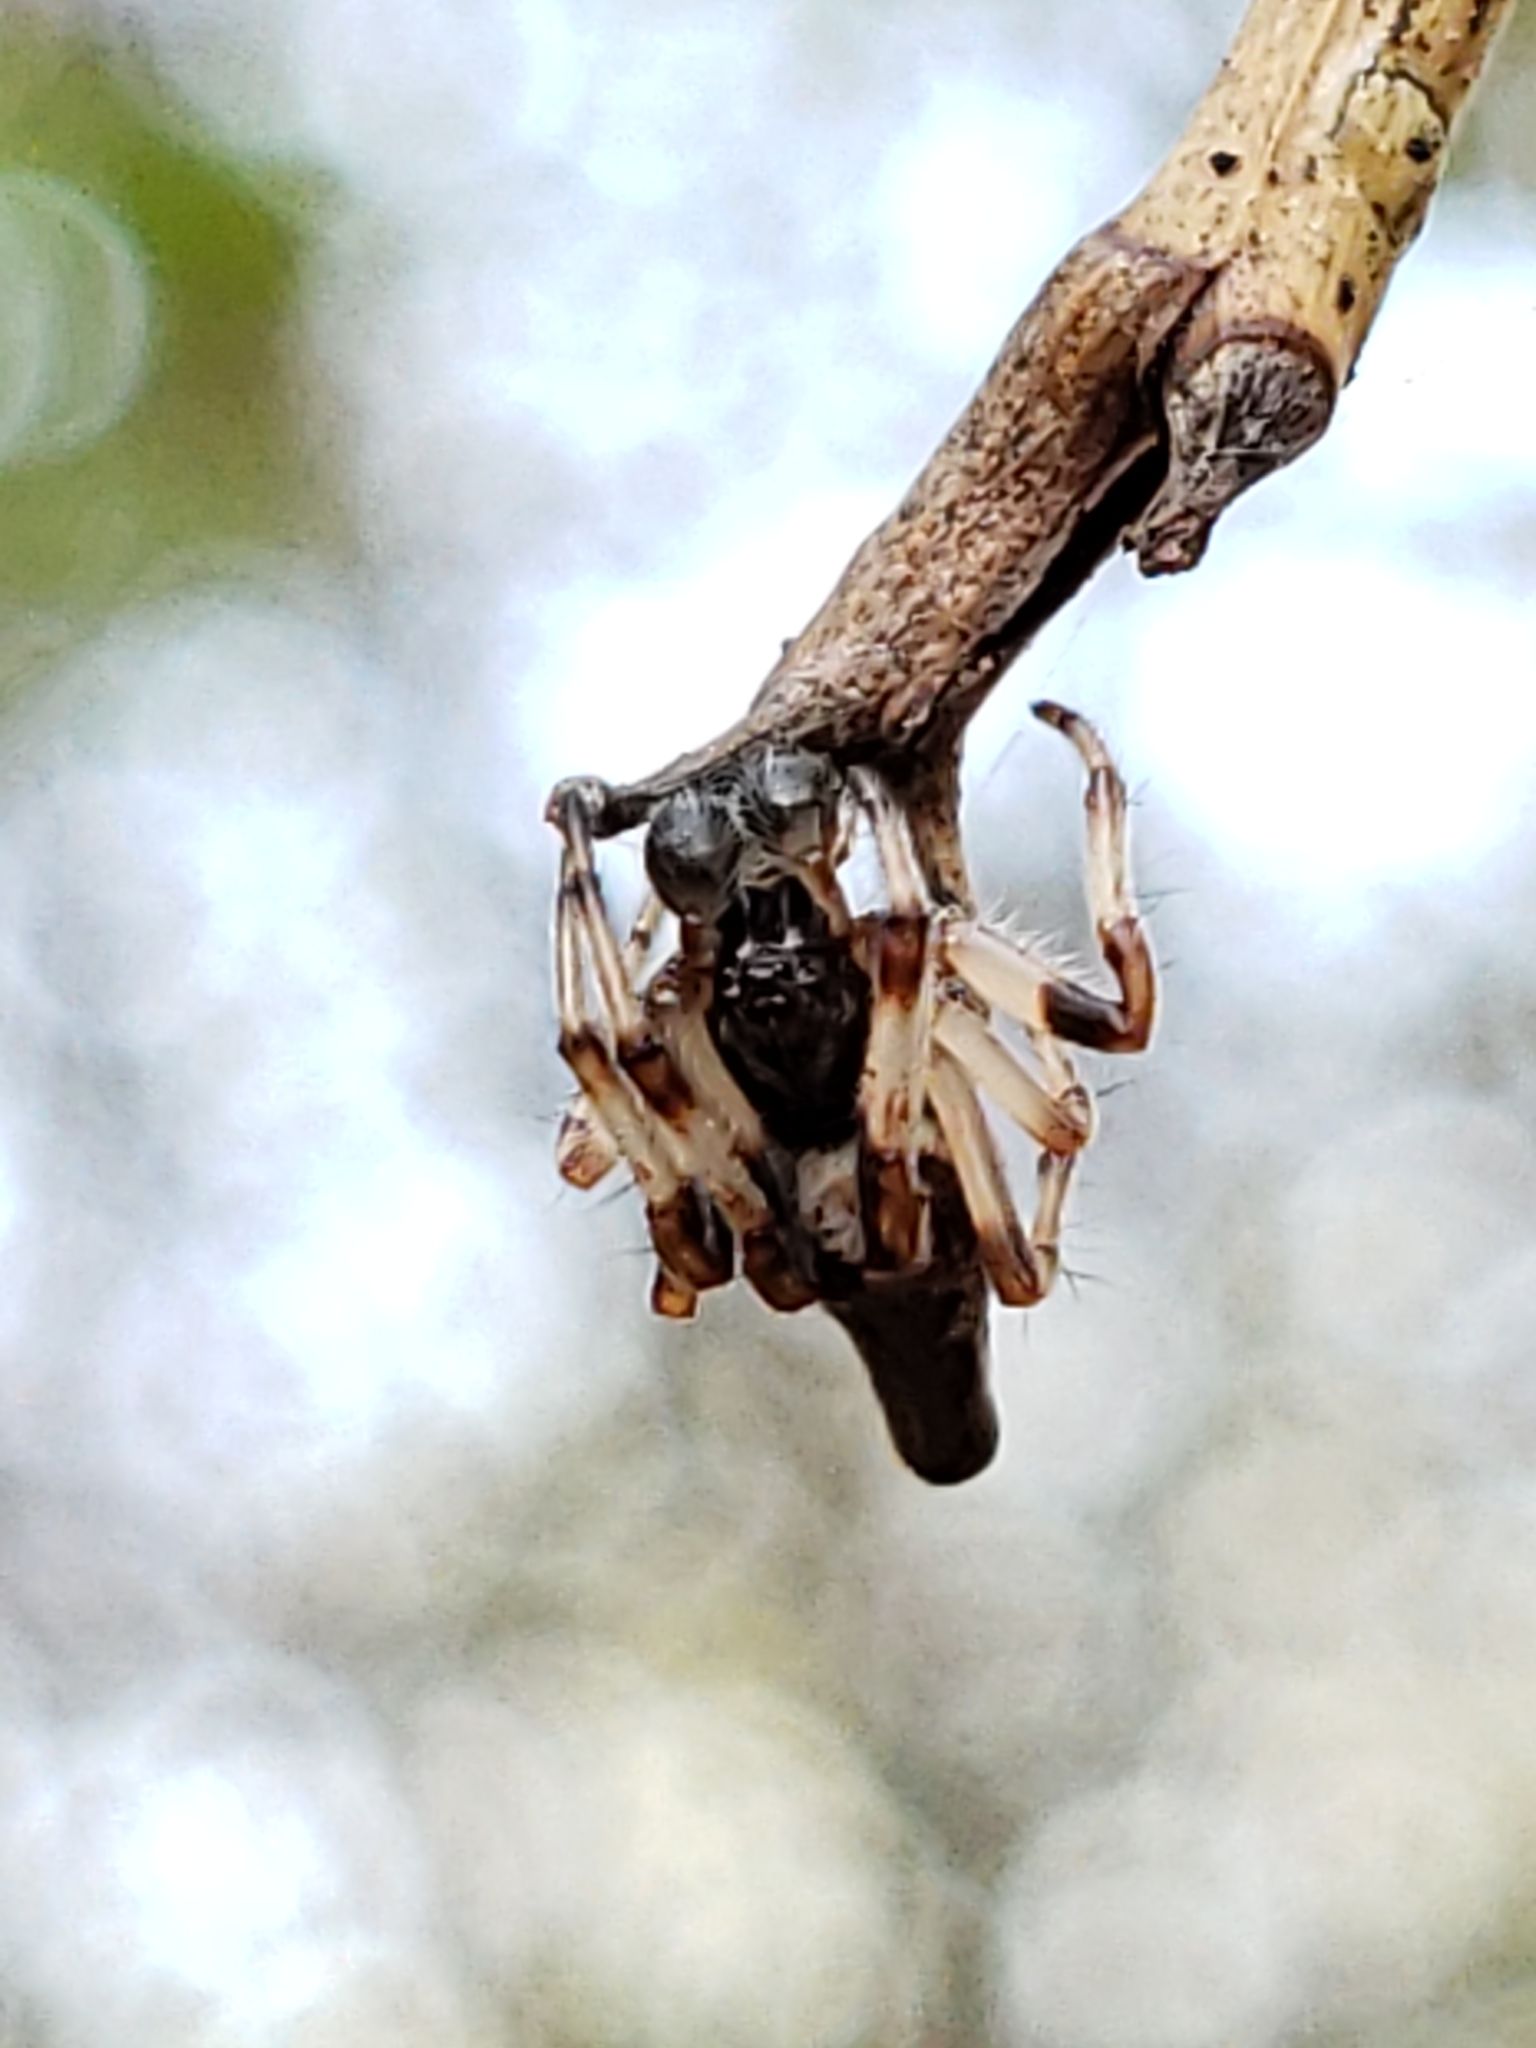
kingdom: Animalia
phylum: Arthropoda
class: Arachnida
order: Araneae
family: Araneidae
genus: Cyclosa
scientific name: Cyclosa conica
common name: Conical trashline orbweaver
